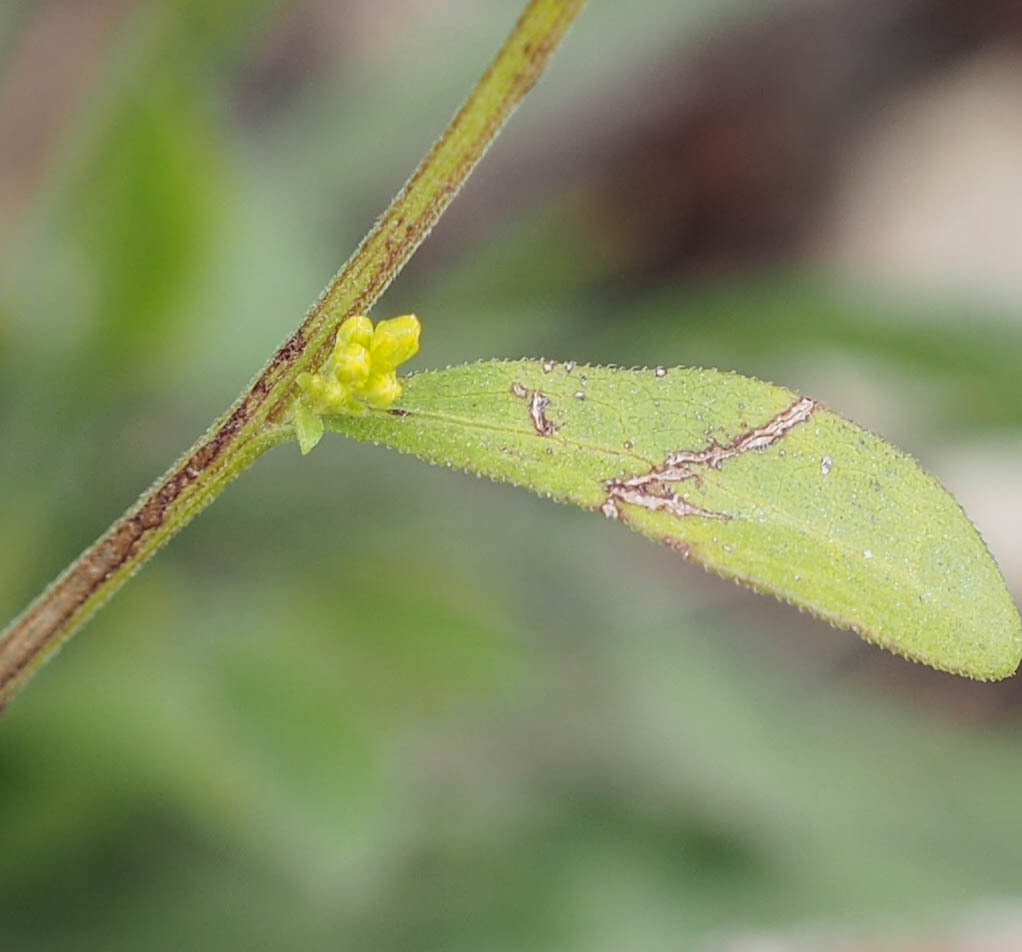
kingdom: Plantae
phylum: Tracheophyta
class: Magnoliopsida
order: Asterales
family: Asteraceae
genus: Solidago
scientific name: Solidago
